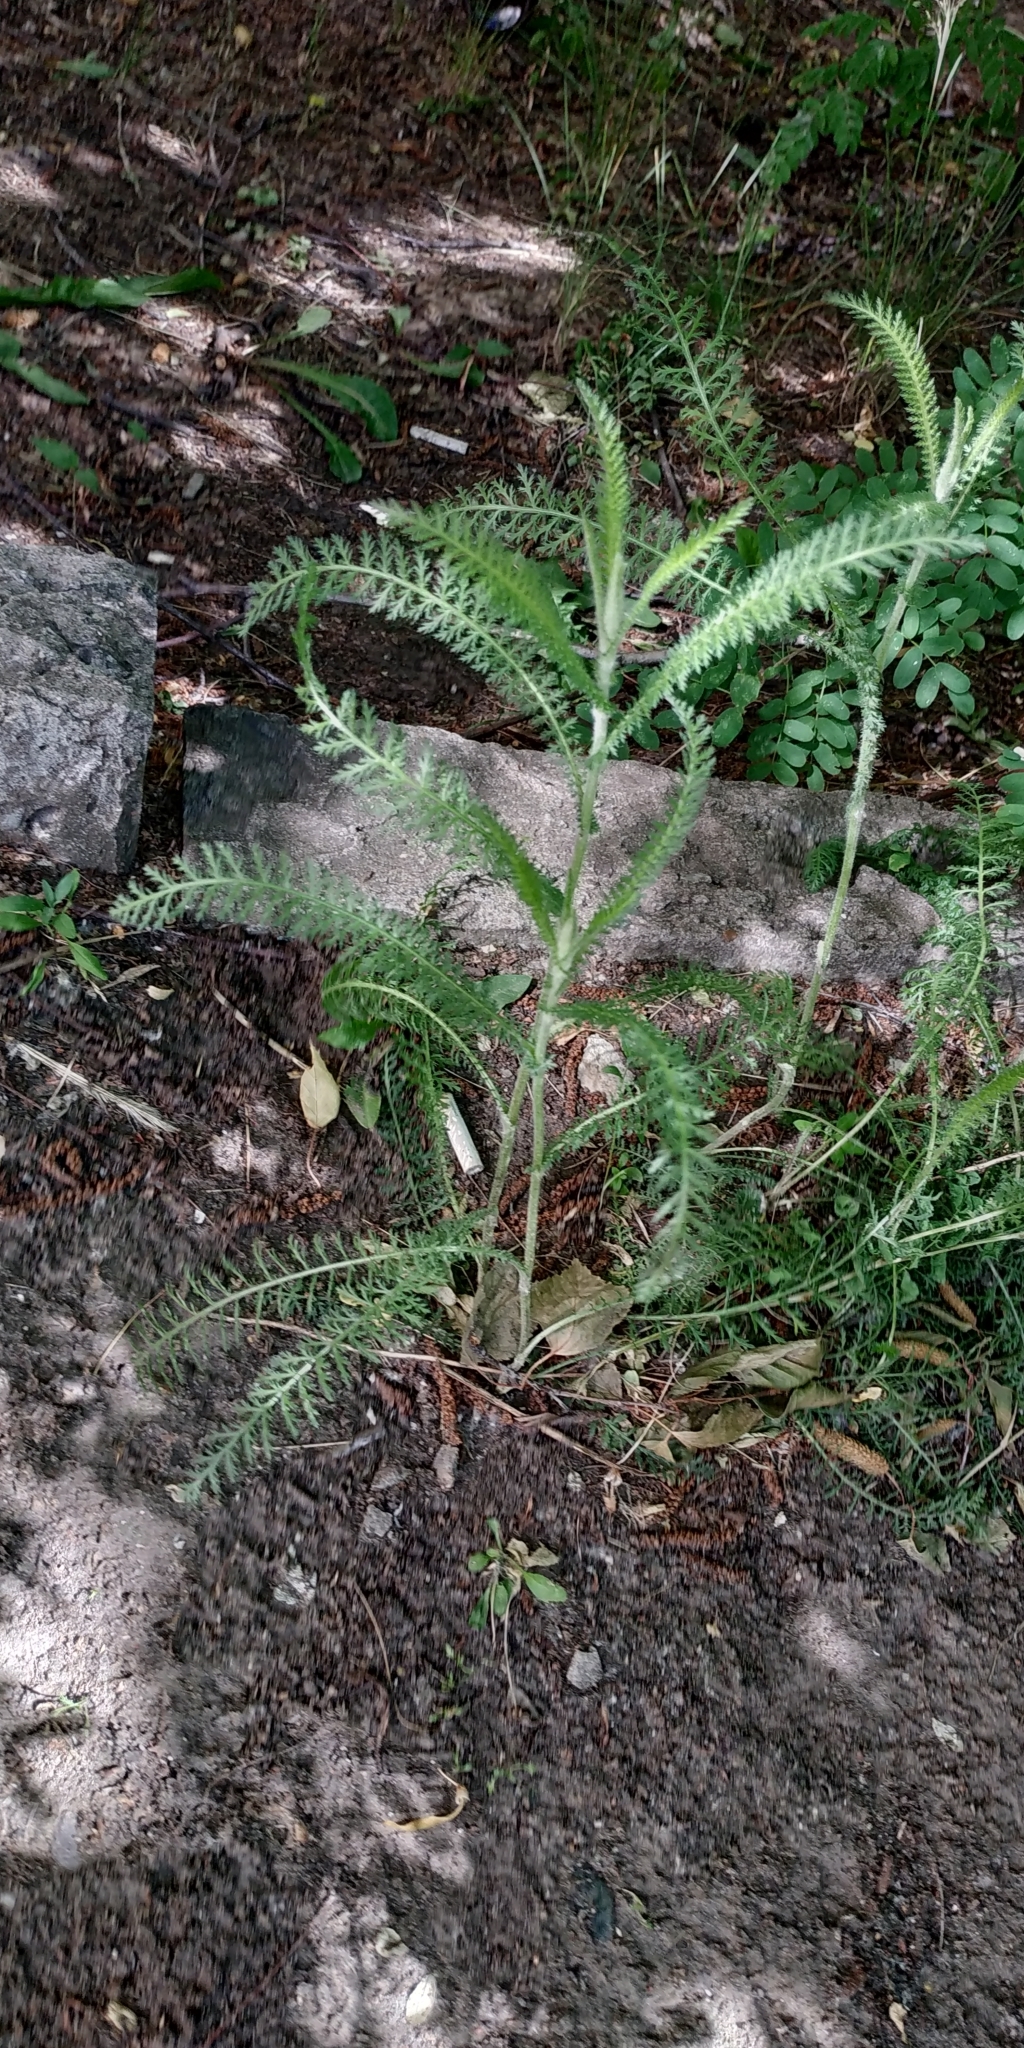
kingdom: Plantae
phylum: Tracheophyta
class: Magnoliopsida
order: Asterales
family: Asteraceae
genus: Achillea
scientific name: Achillea millefolium
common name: Yarrow
